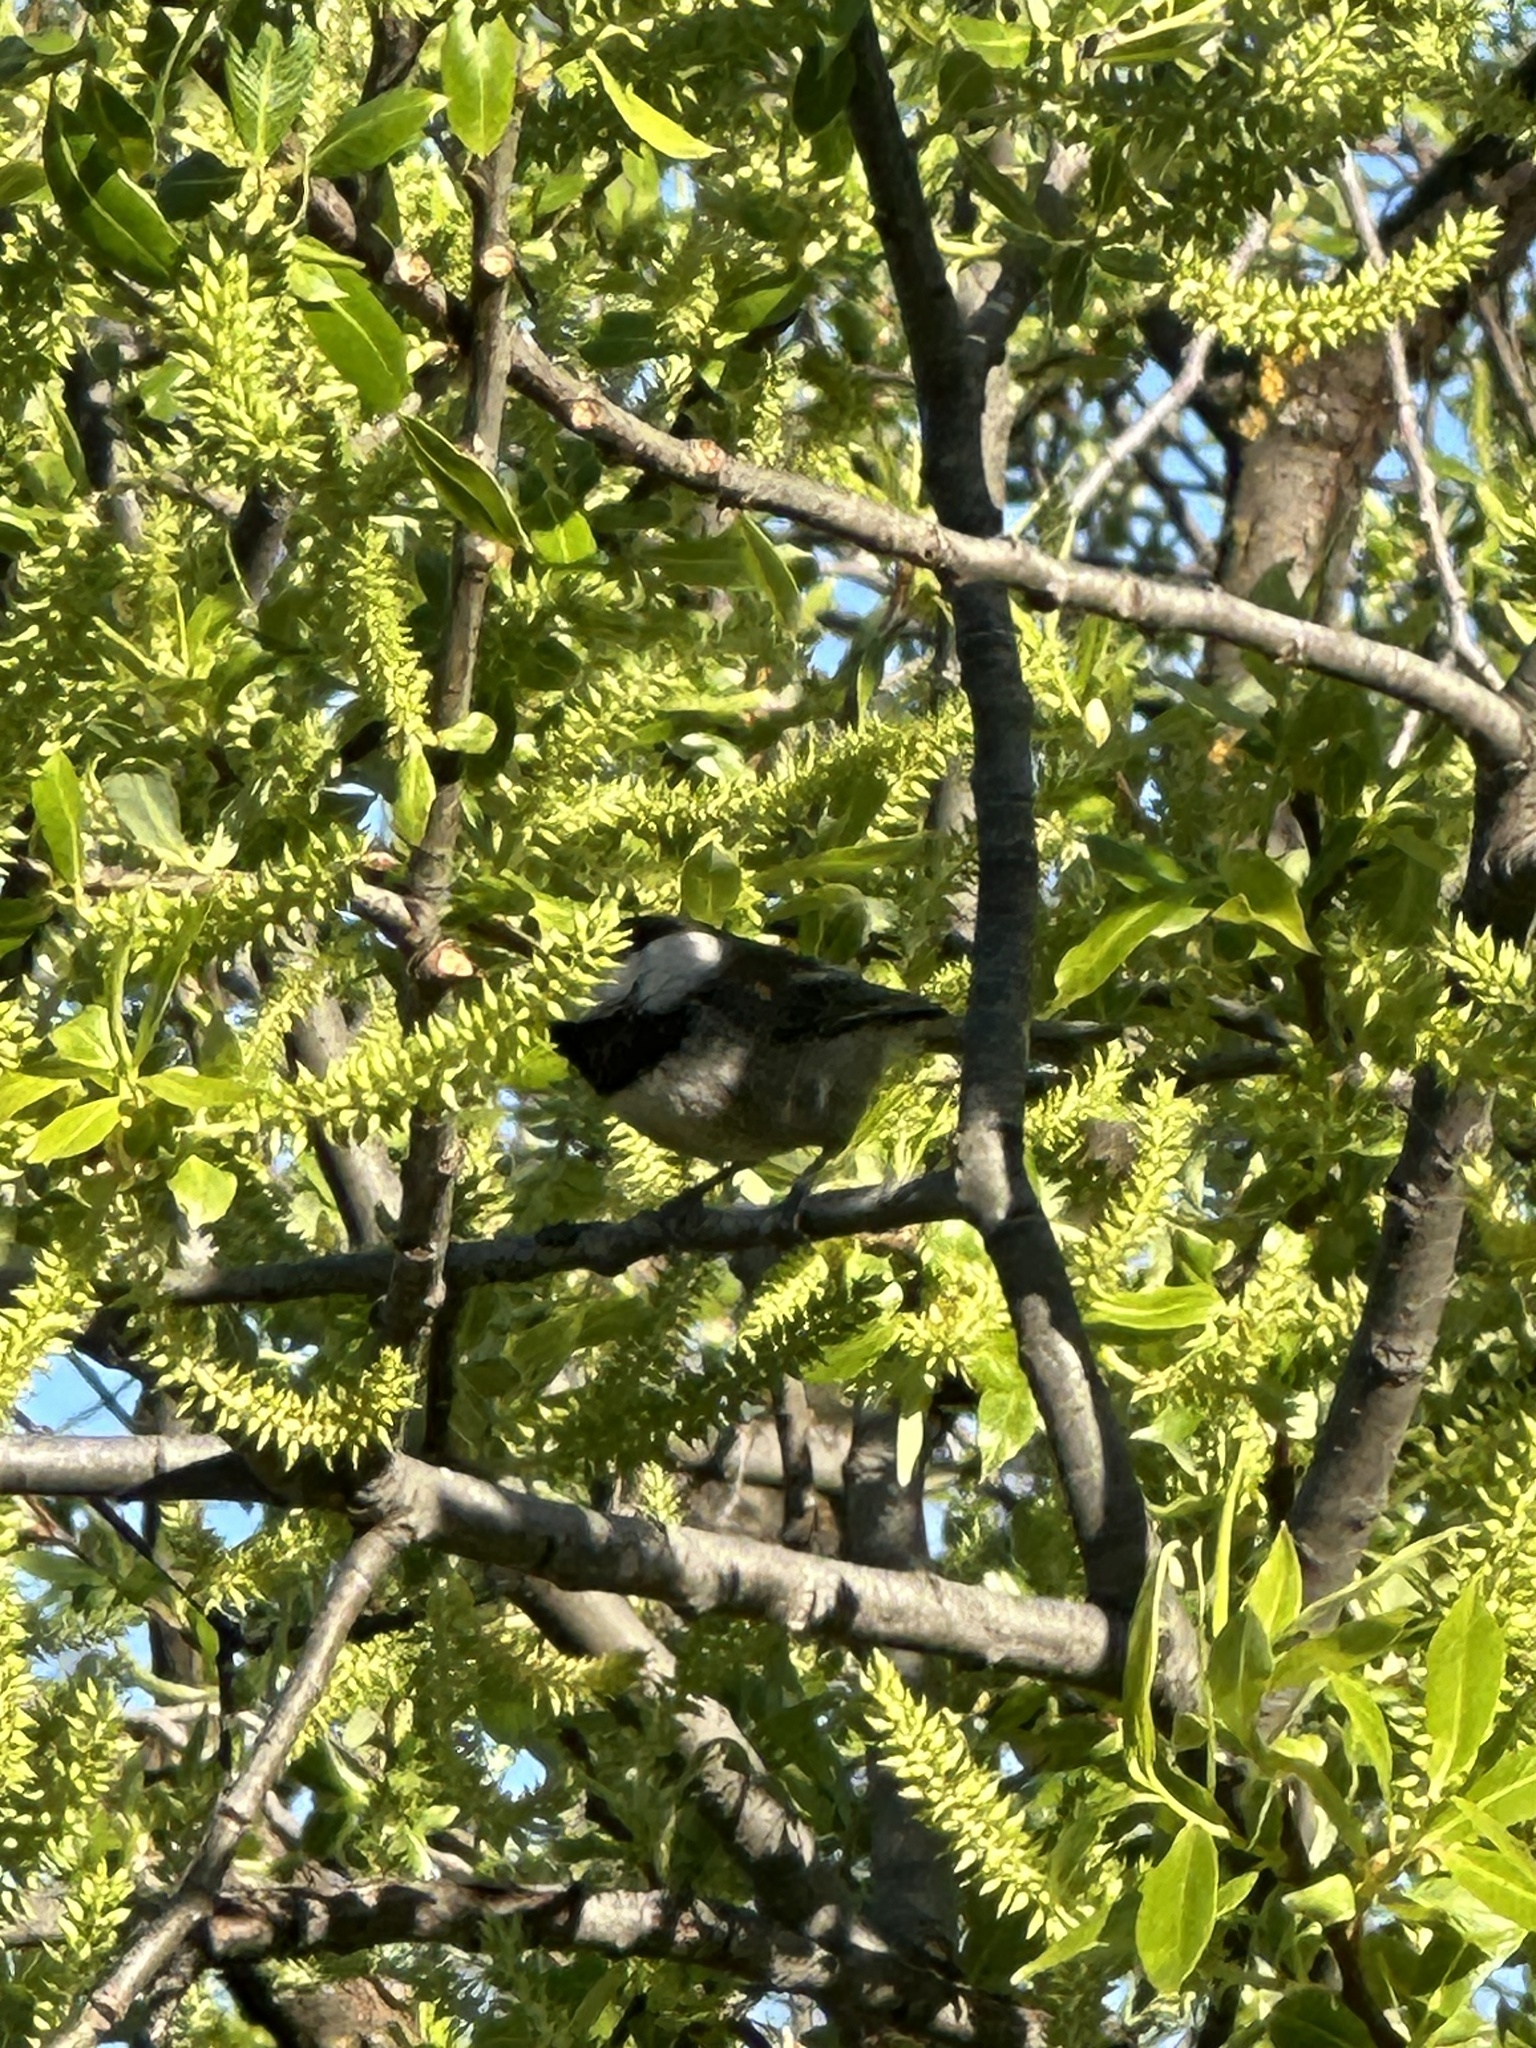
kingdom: Animalia
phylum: Chordata
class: Aves
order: Passeriformes
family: Paridae
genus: Poecile
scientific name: Poecile rufescens
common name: Chestnut-backed chickadee
